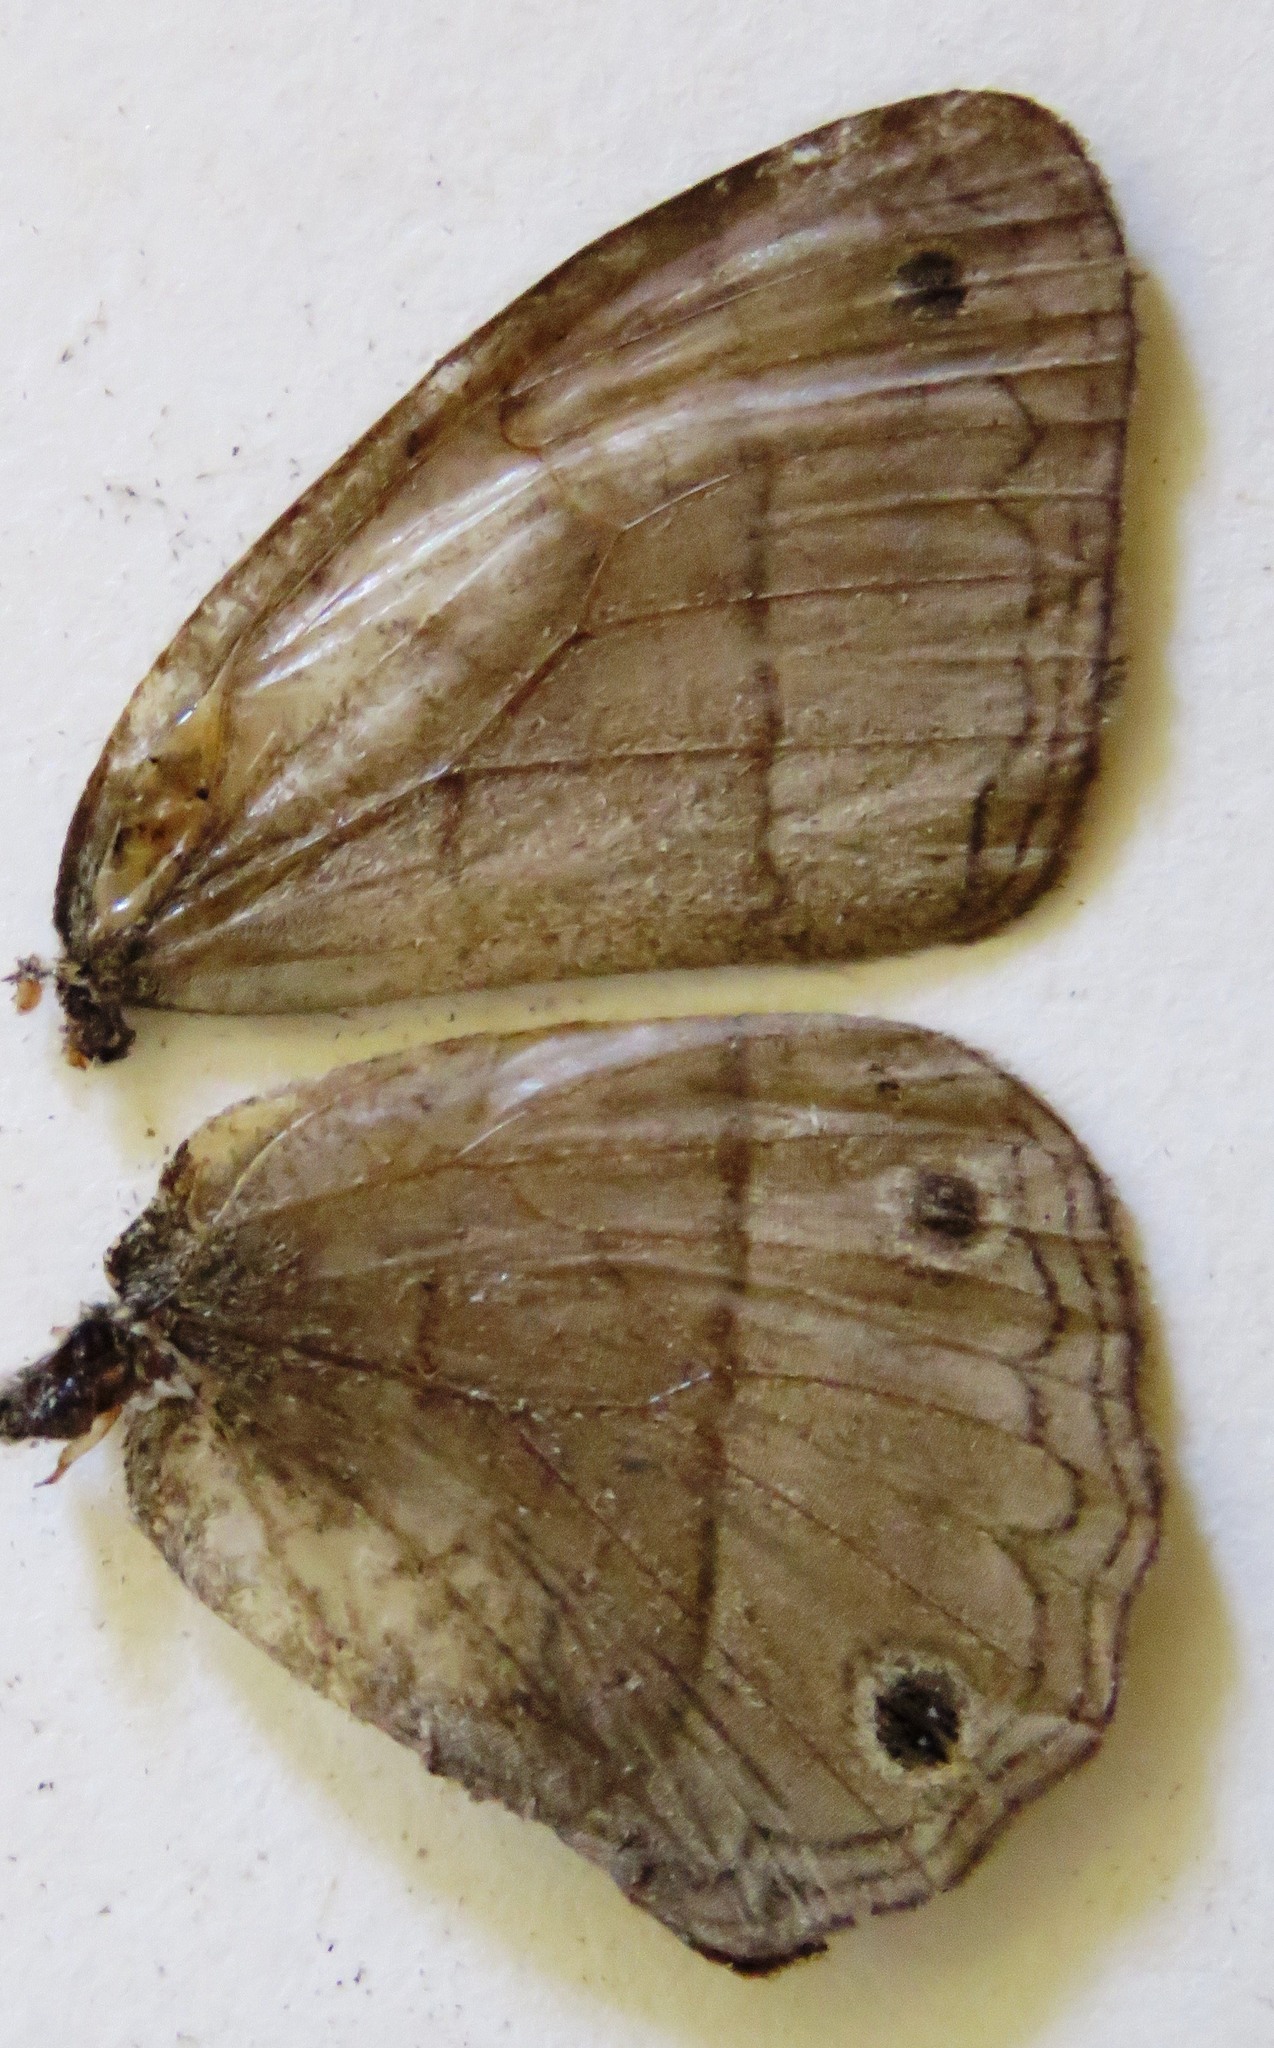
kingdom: Animalia
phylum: Arthropoda
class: Insecta
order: Lepidoptera
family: Nymphalidae
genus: Euptychia
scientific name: Euptychia Cissia pompilia
